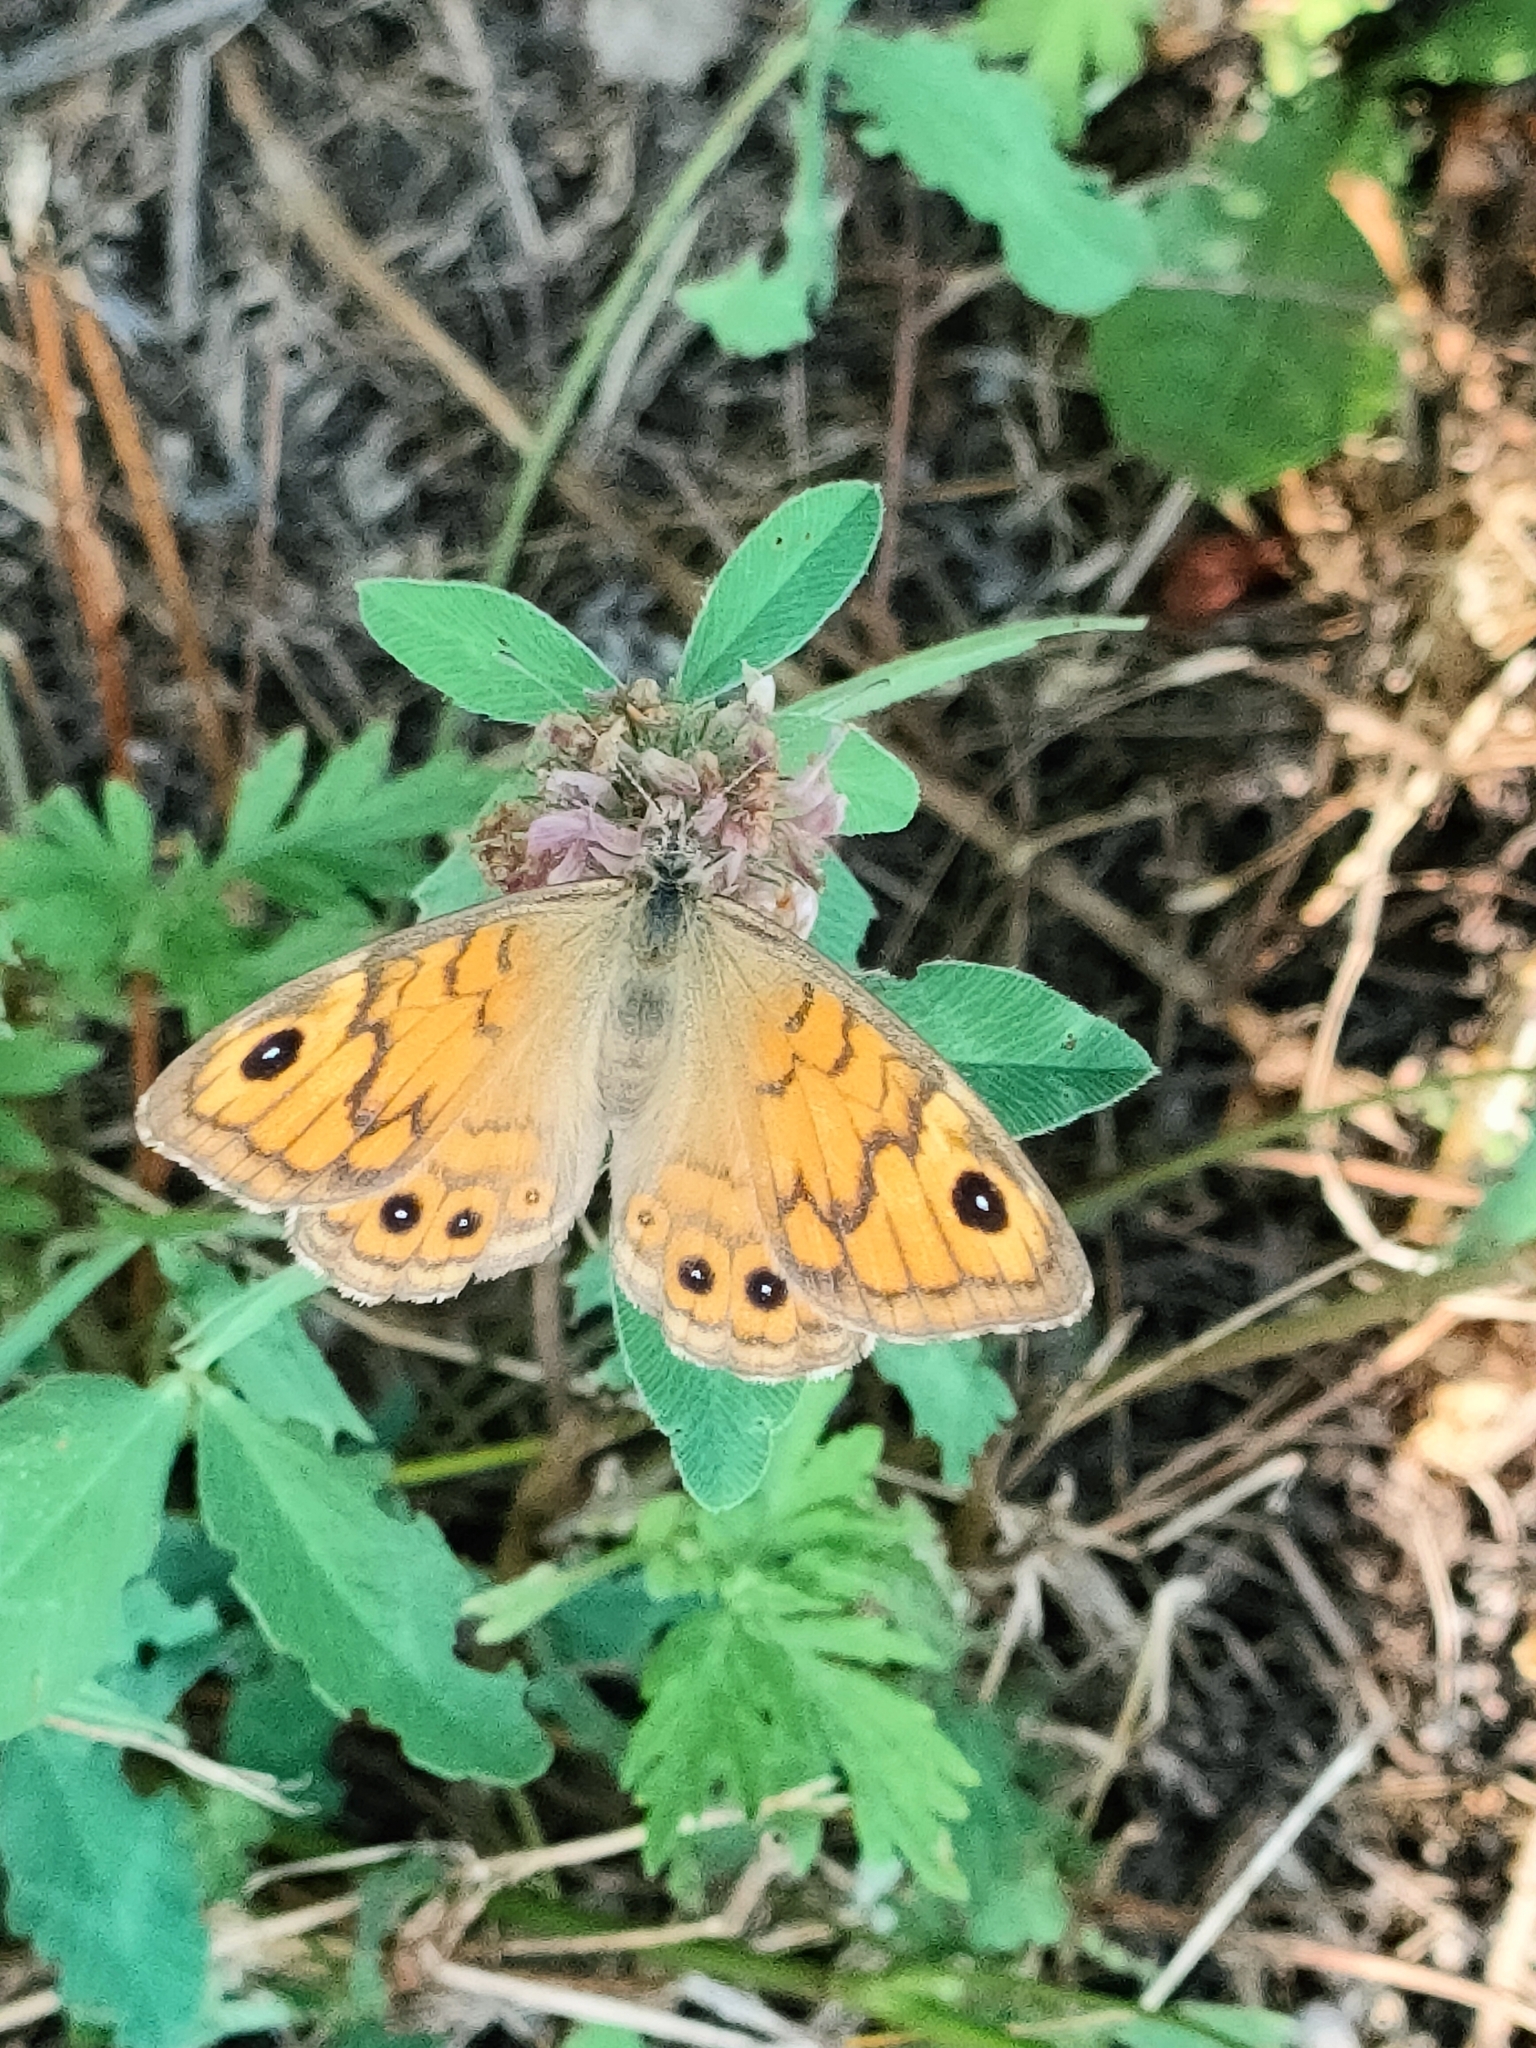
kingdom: Animalia
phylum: Arthropoda
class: Insecta
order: Lepidoptera
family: Nymphalidae
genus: Pararge
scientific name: Pararge Lasiommata megera
